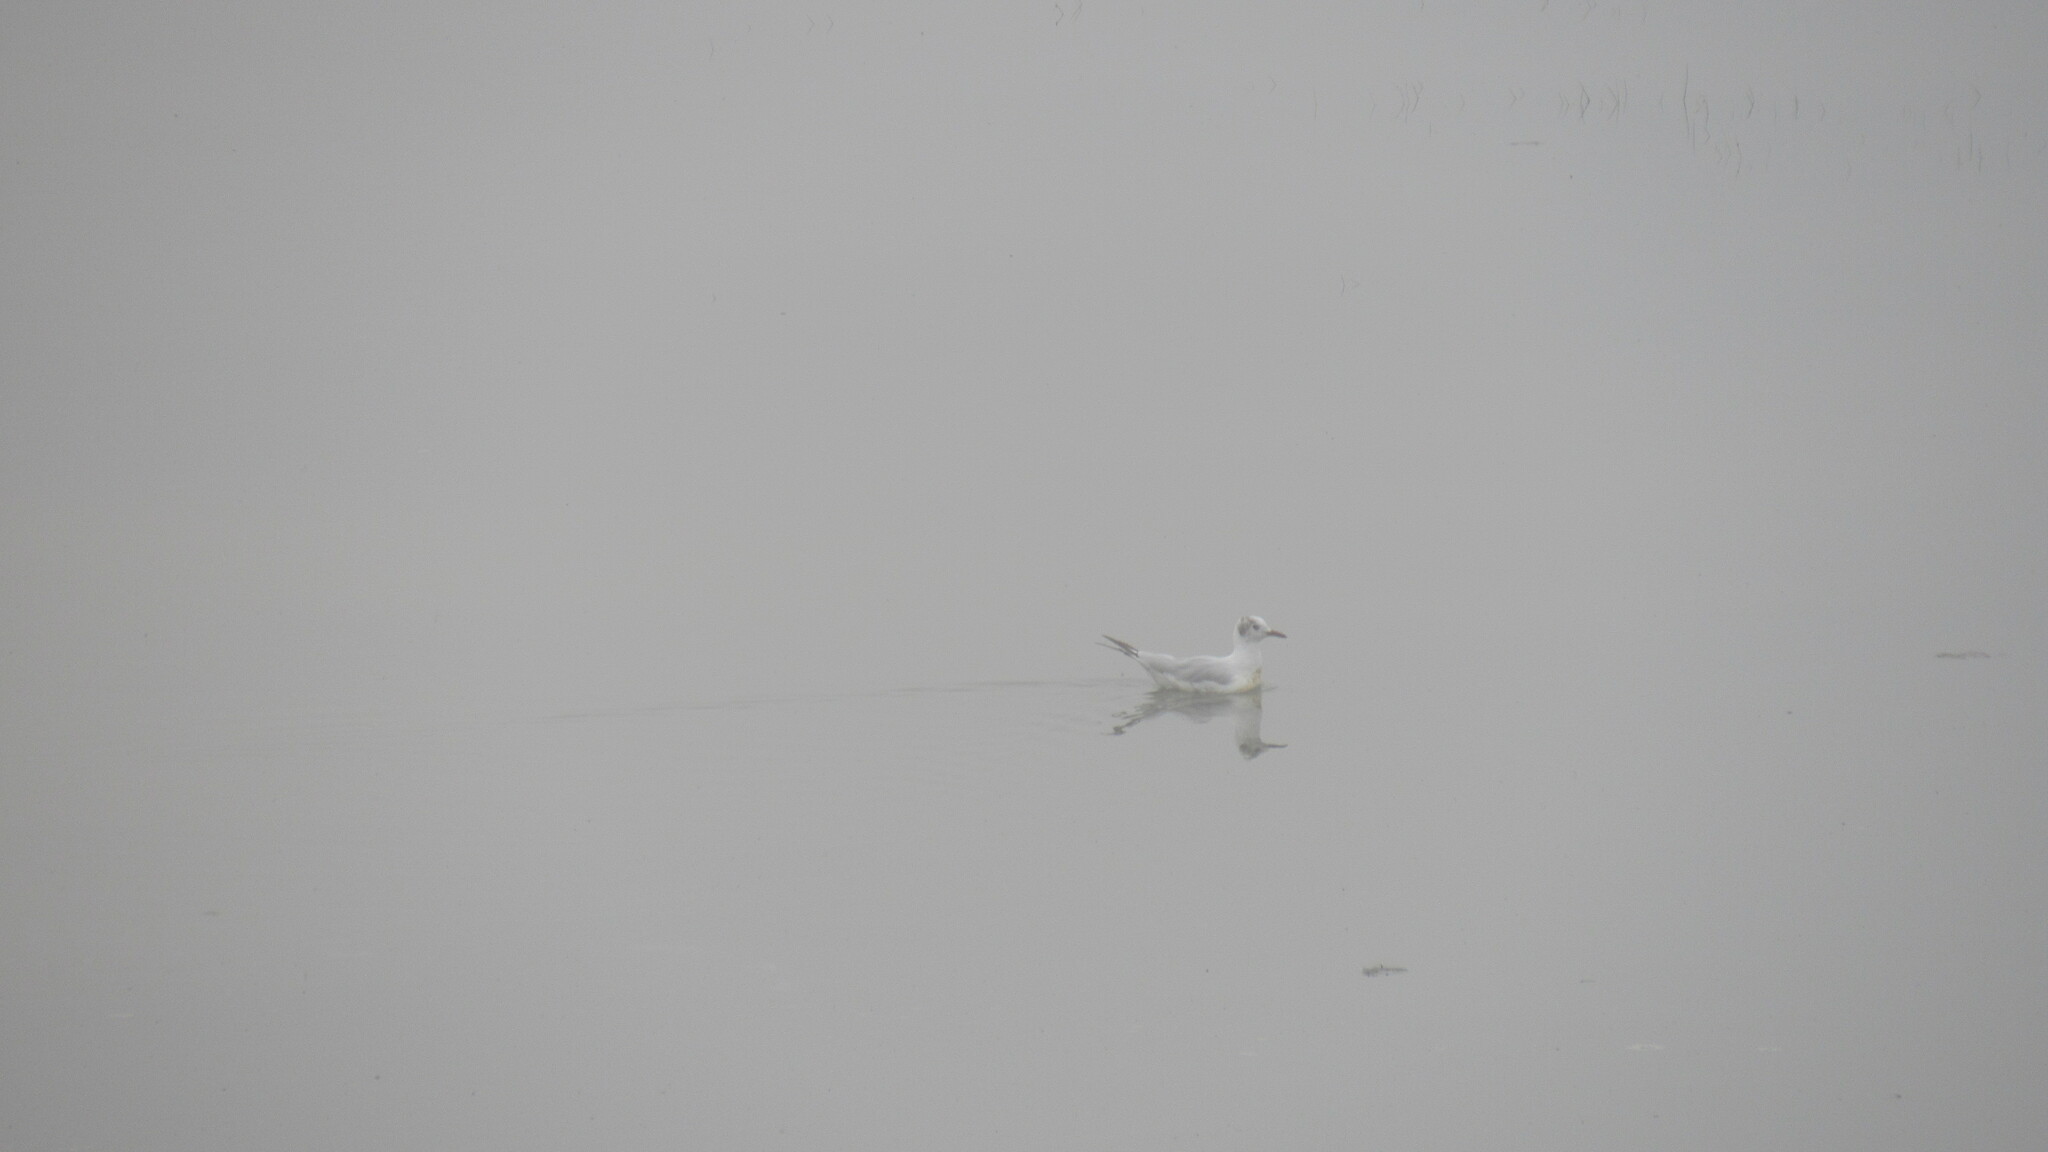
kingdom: Animalia
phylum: Chordata
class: Aves
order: Charadriiformes
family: Laridae
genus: Chroicocephalus
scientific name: Chroicocephalus ridibundus
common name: Black-headed gull
